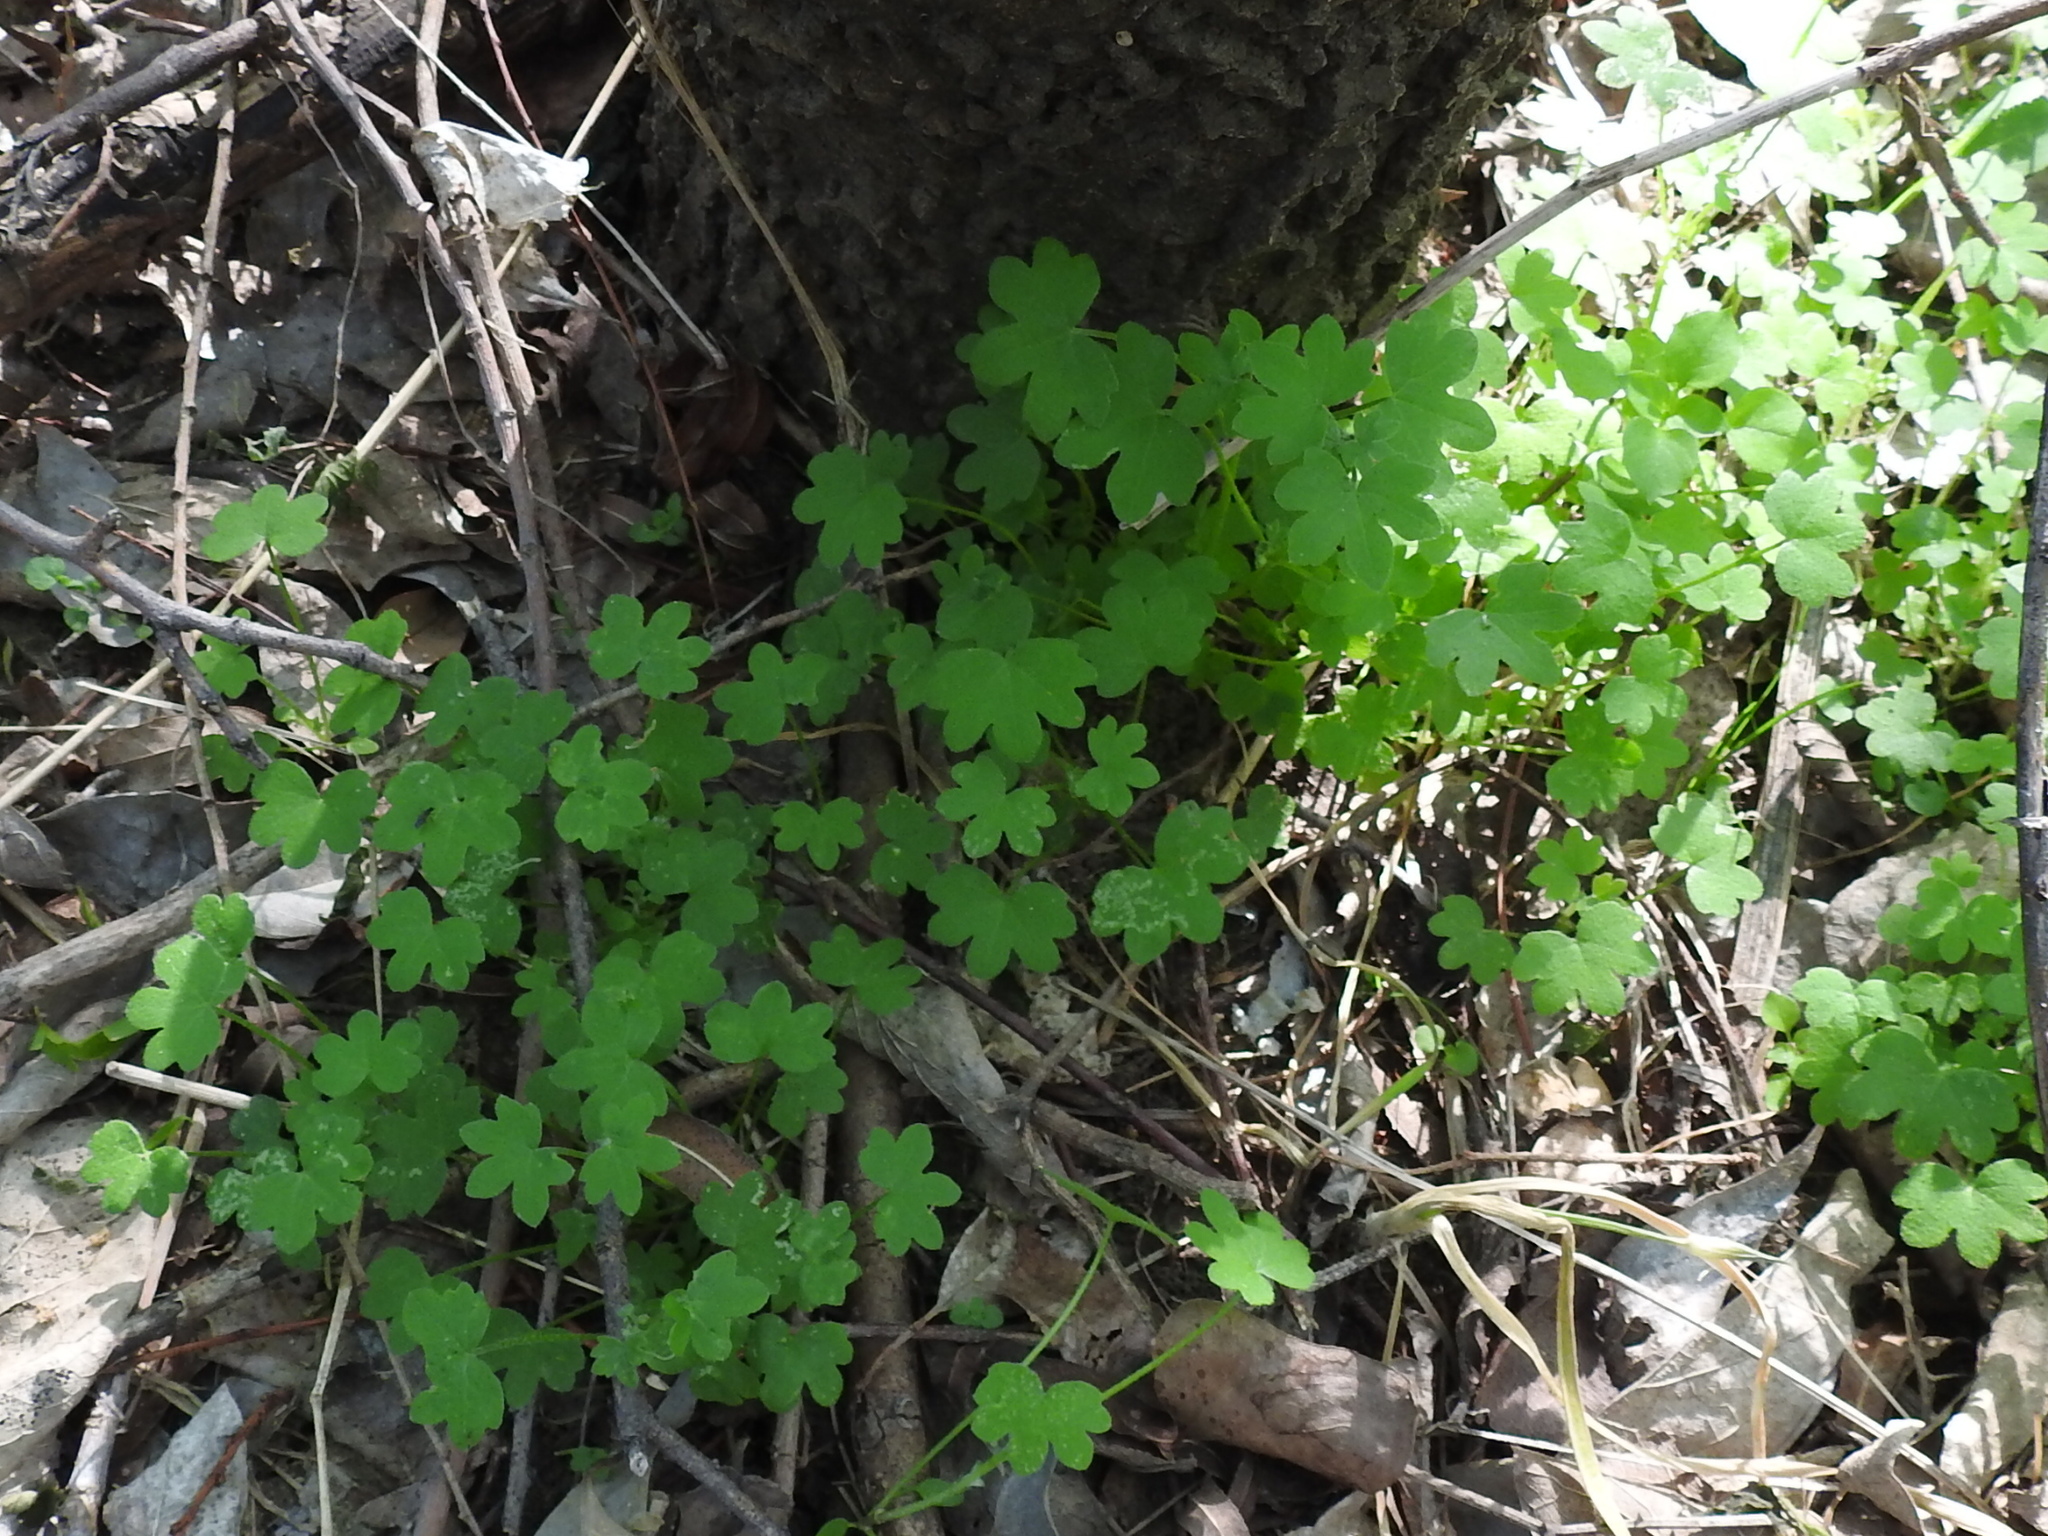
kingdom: Plantae
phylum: Tracheophyta
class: Magnoliopsida
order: Apiales
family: Apiaceae
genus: Bowlesia
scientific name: Bowlesia incana
